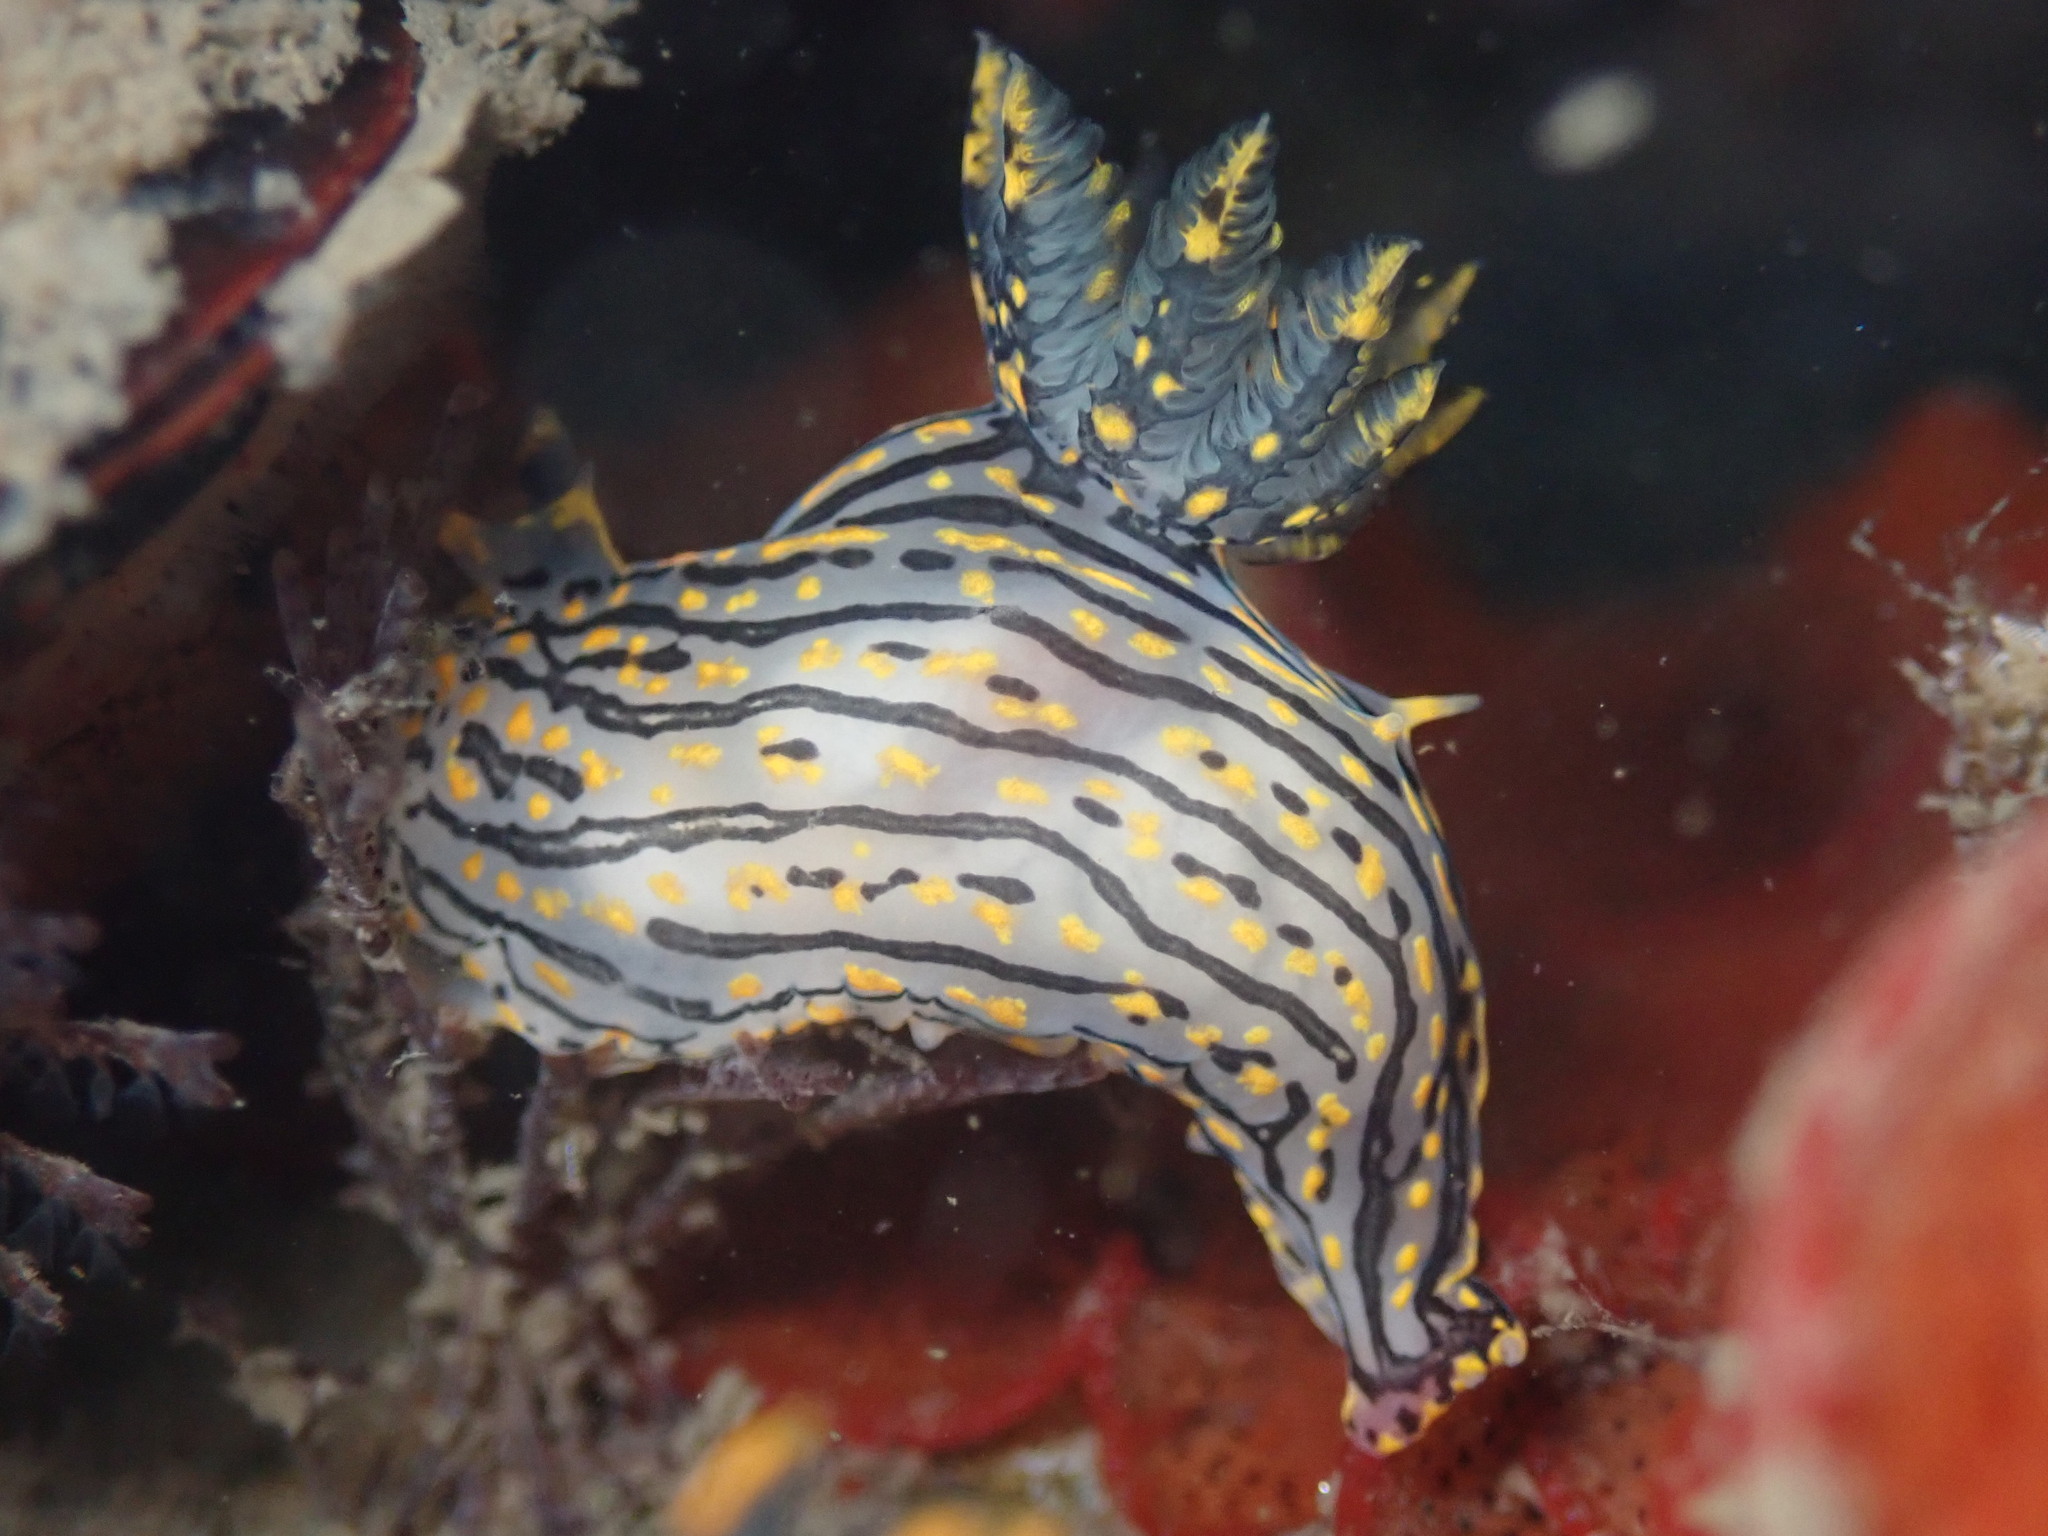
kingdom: Animalia
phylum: Mollusca
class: Gastropoda
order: Nudibranchia
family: Polyceridae
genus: Polycera
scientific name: Polycera atra
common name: Orange-spike polycera
